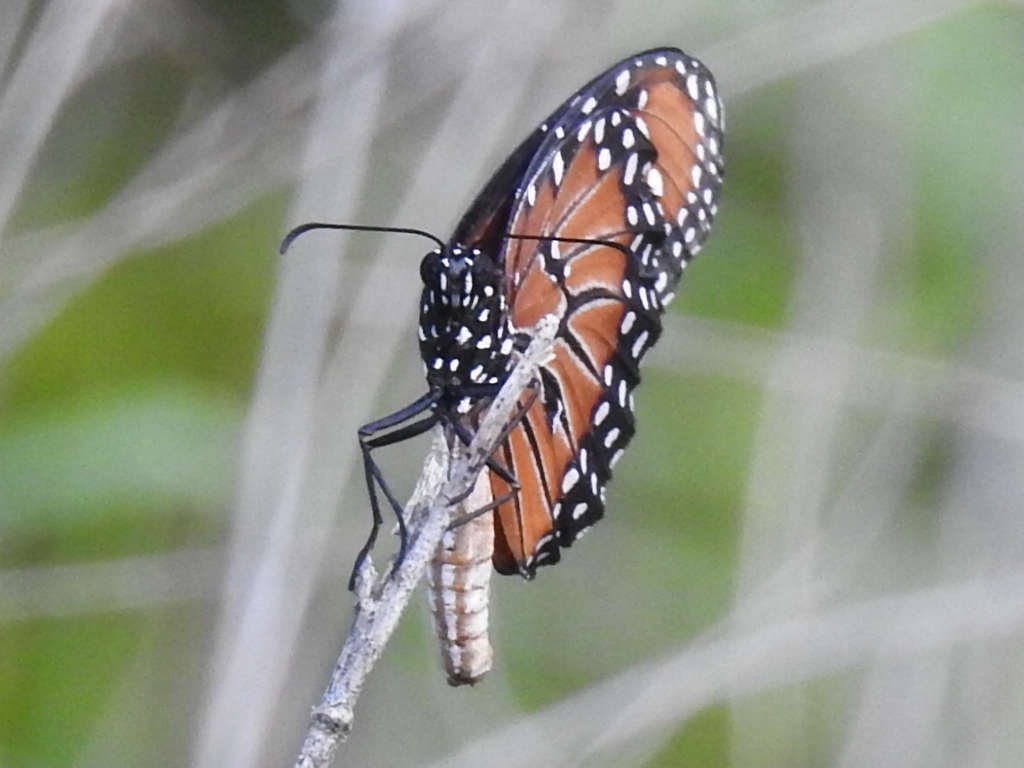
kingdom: Animalia
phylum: Arthropoda
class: Insecta
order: Lepidoptera
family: Nymphalidae
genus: Danaus
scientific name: Danaus gilippus
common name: Queen
